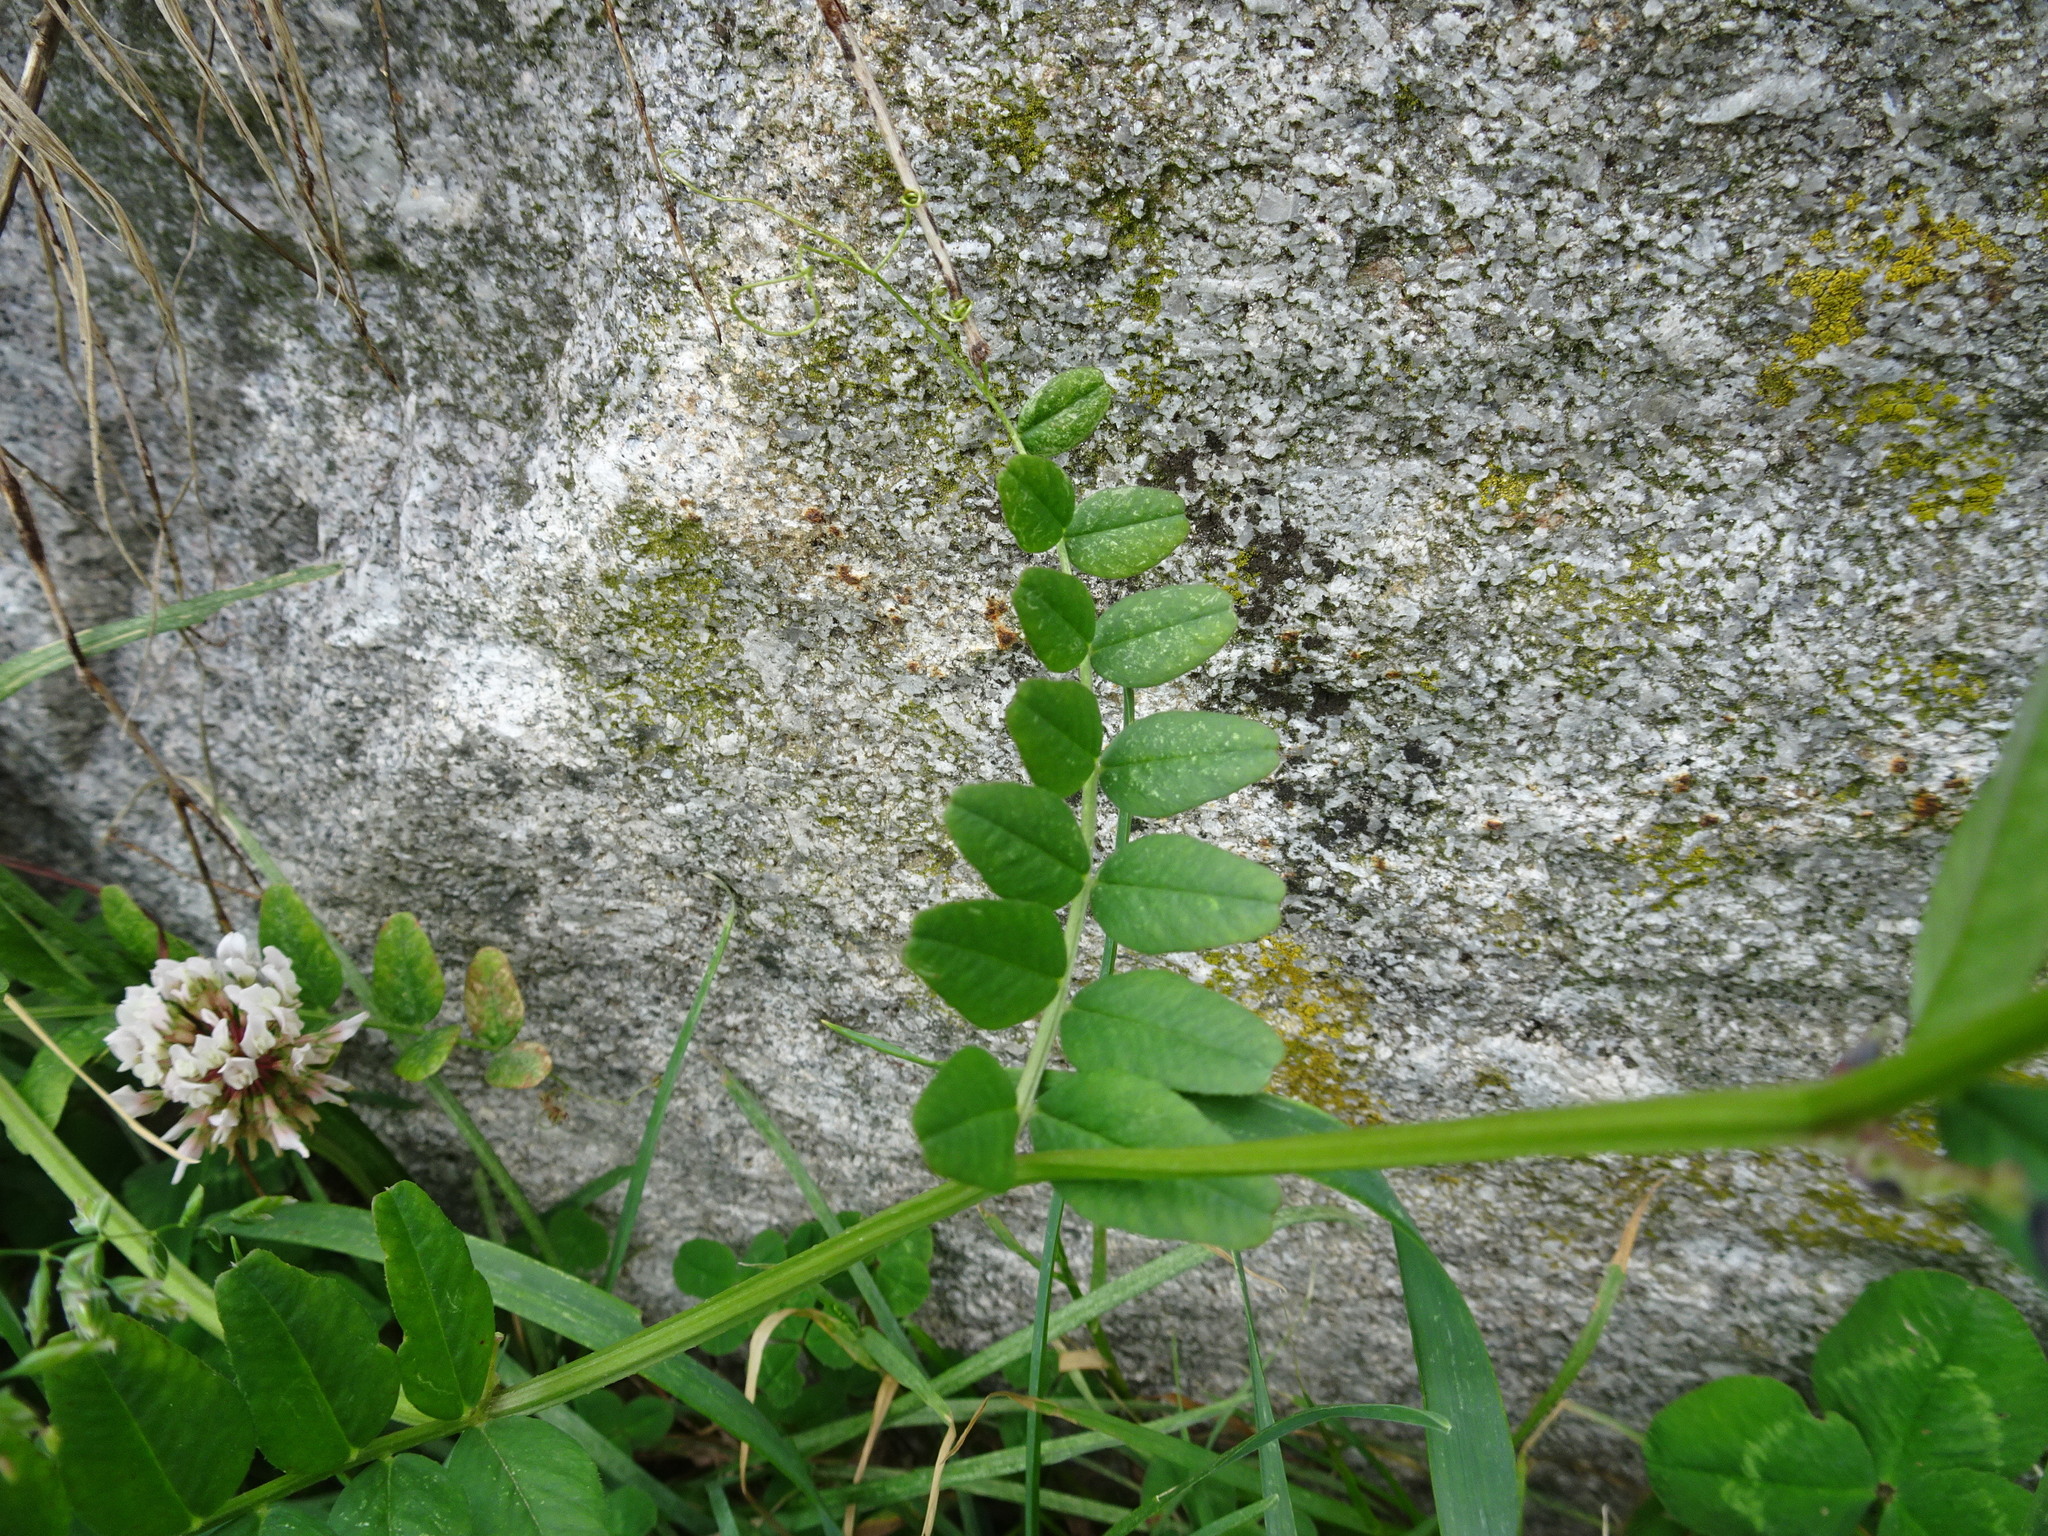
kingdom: Plantae
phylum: Tracheophyta
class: Magnoliopsida
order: Fabales
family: Fabaceae
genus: Vicia
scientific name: Vicia sepium
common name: Bush vetch
